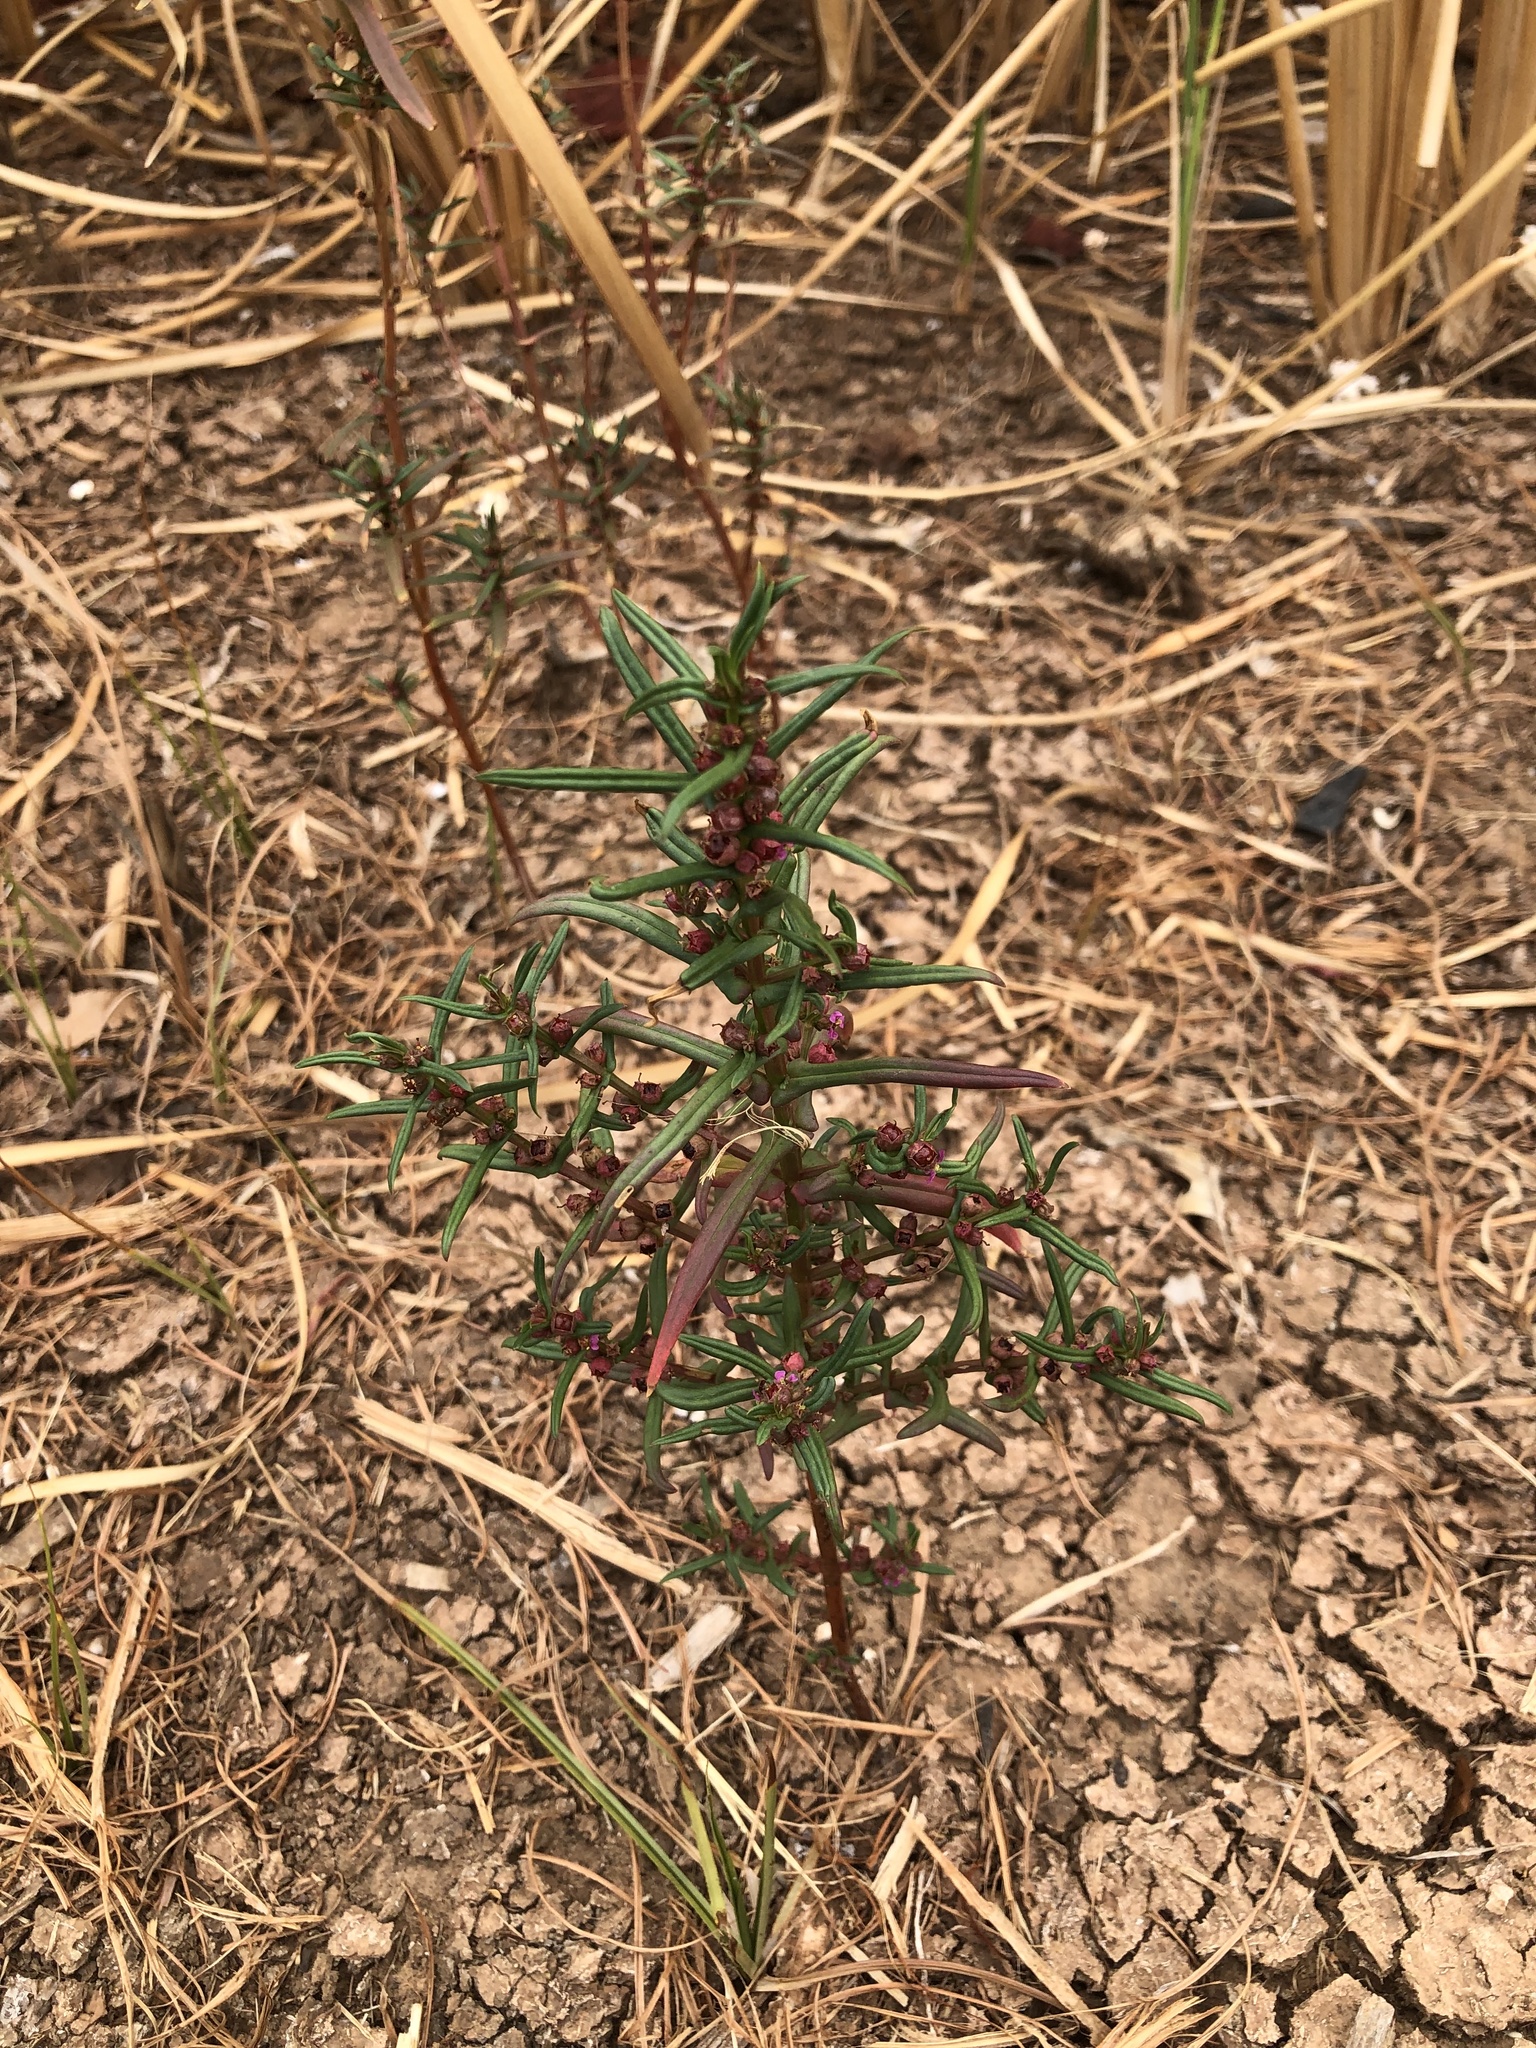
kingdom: Plantae
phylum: Tracheophyta
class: Magnoliopsida
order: Myrtales
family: Lythraceae
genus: Ammannia
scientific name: Ammannia coccinea
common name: Valley redstem
